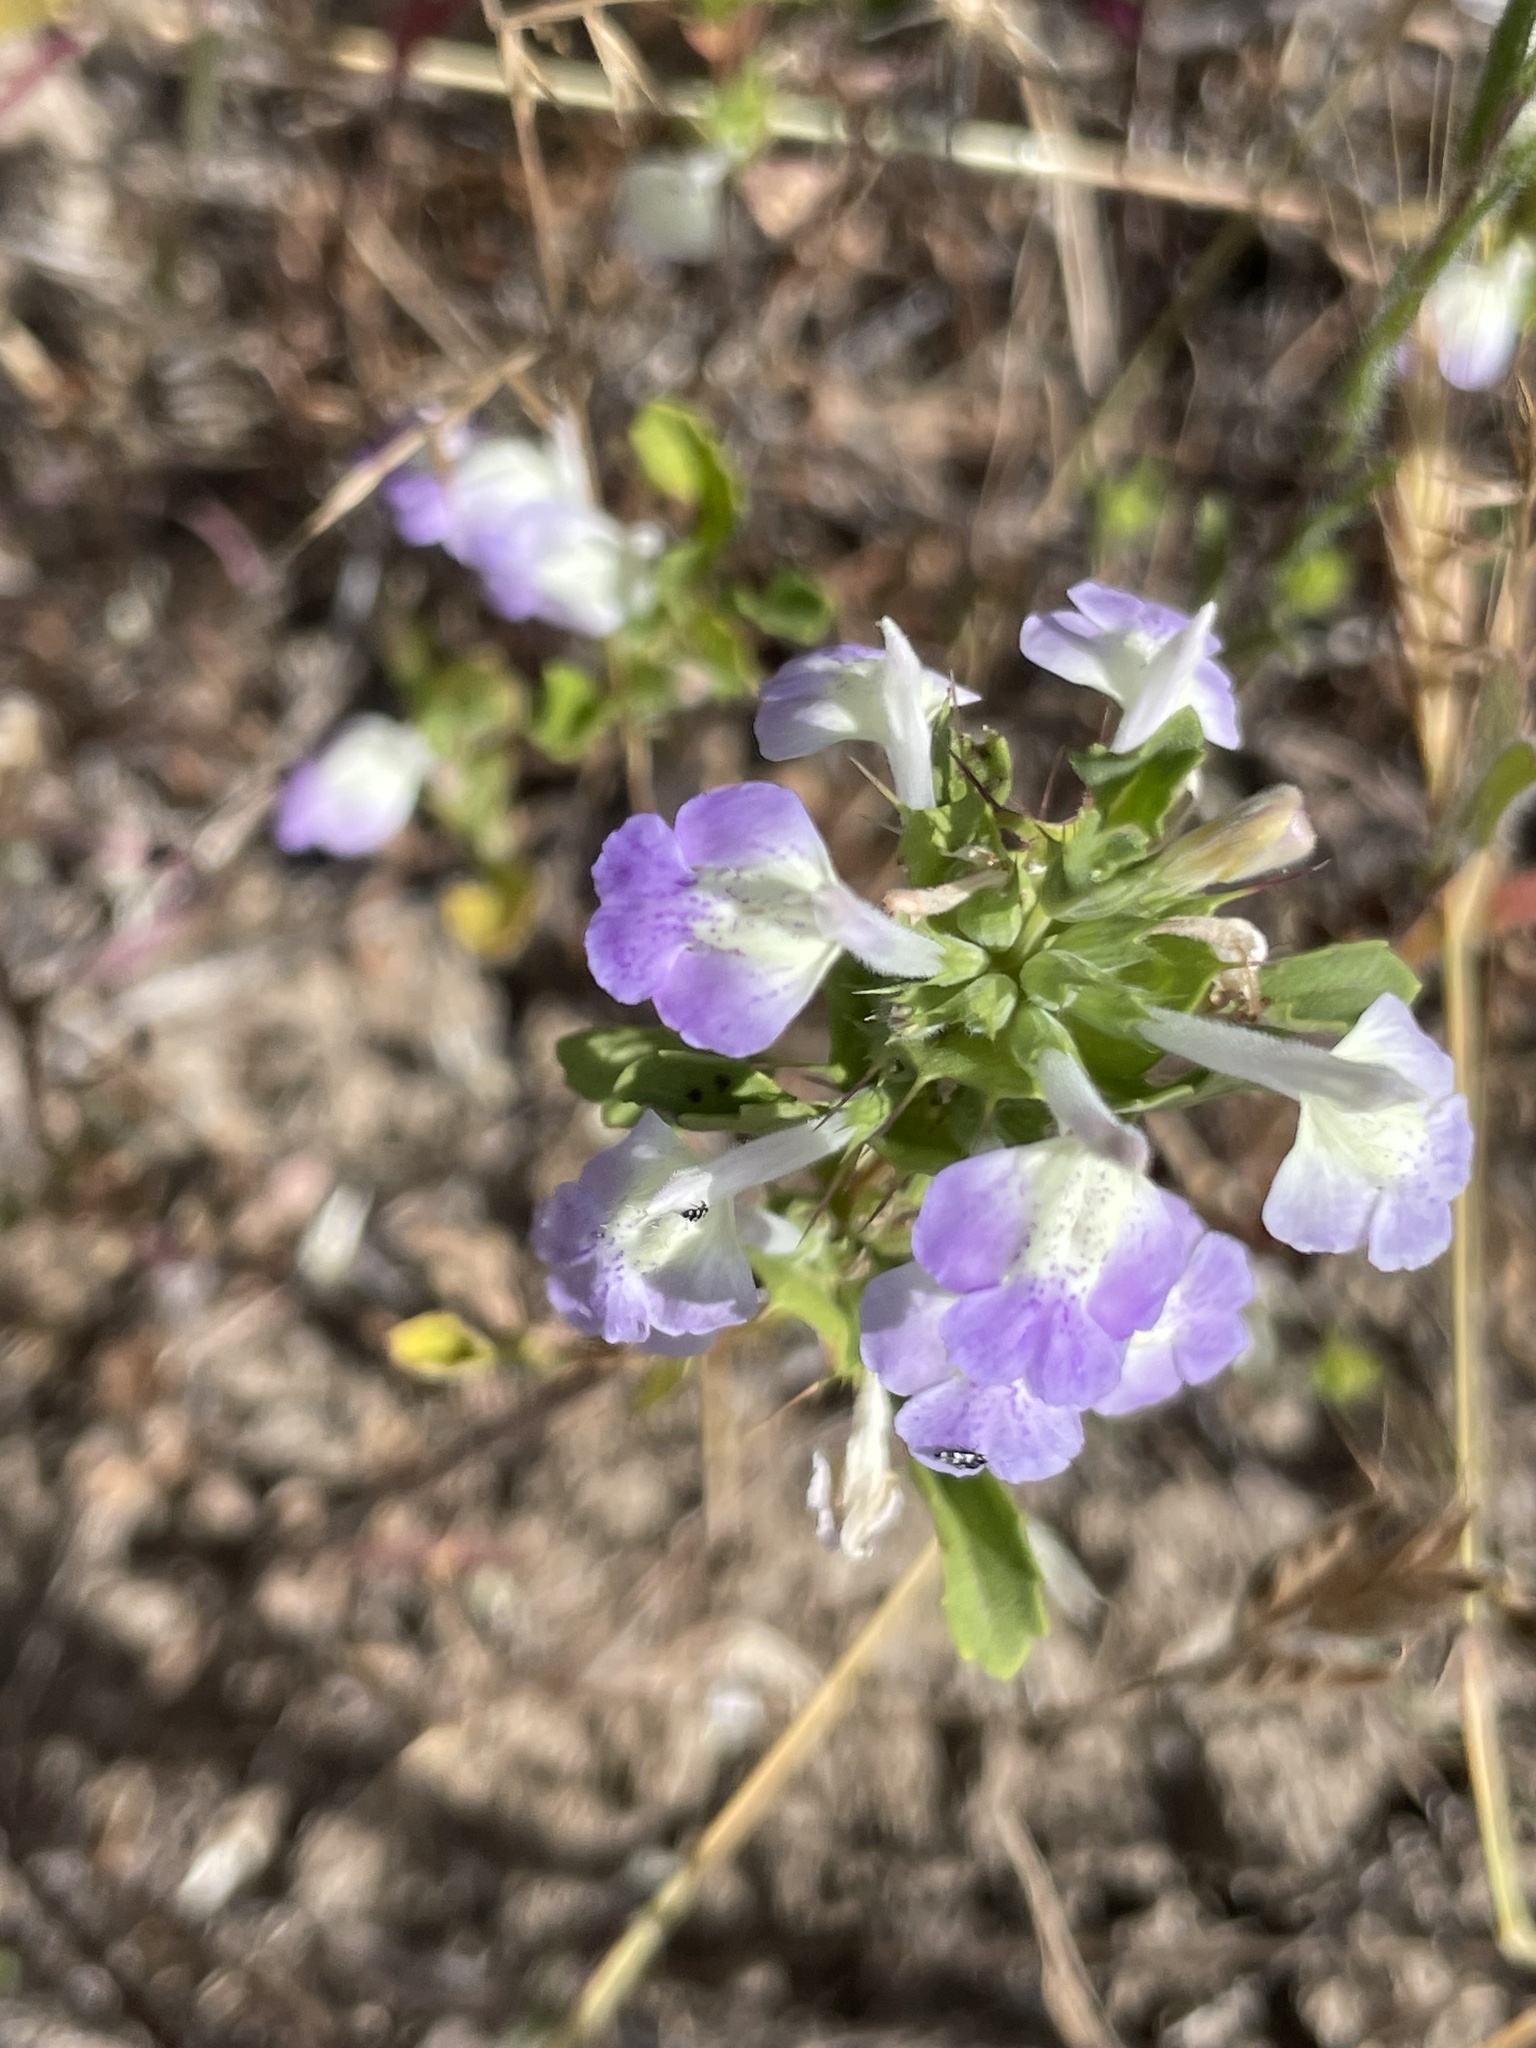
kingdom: Plantae
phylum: Tracheophyta
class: Magnoliopsida
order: Lamiales
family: Lamiaceae
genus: Acanthomintha
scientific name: Acanthomintha ilicifolia
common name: San diego thorn-mint
